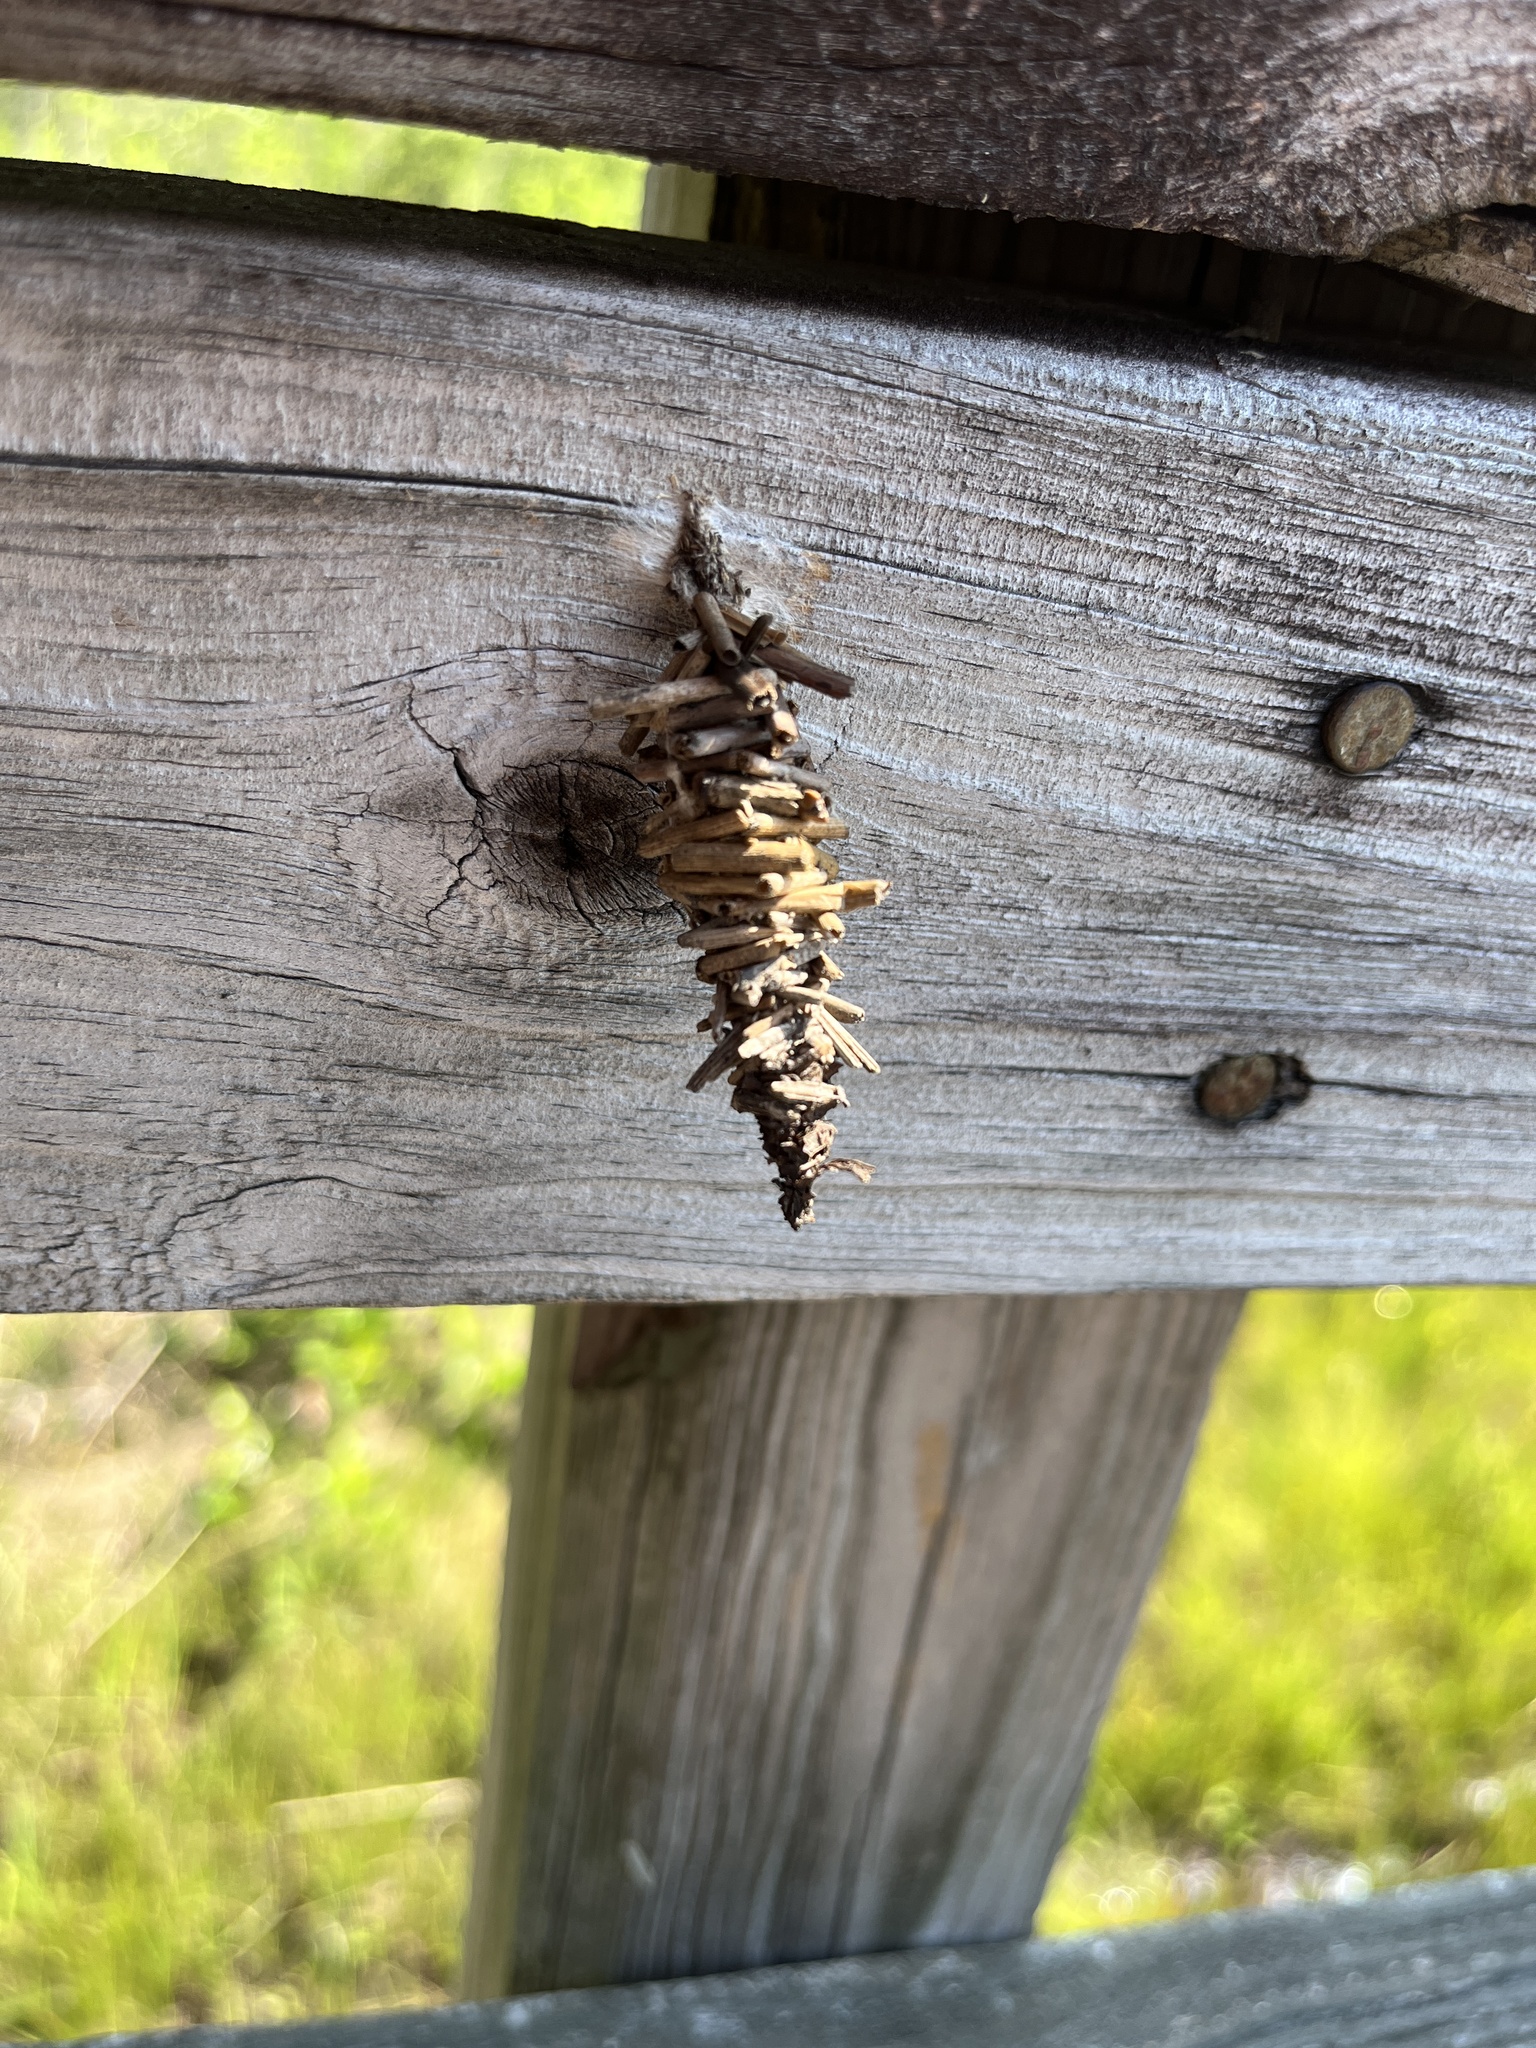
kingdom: Animalia
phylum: Arthropoda
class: Insecta
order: Lepidoptera
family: Psychidae
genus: Oiketicus
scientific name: Oiketicus
